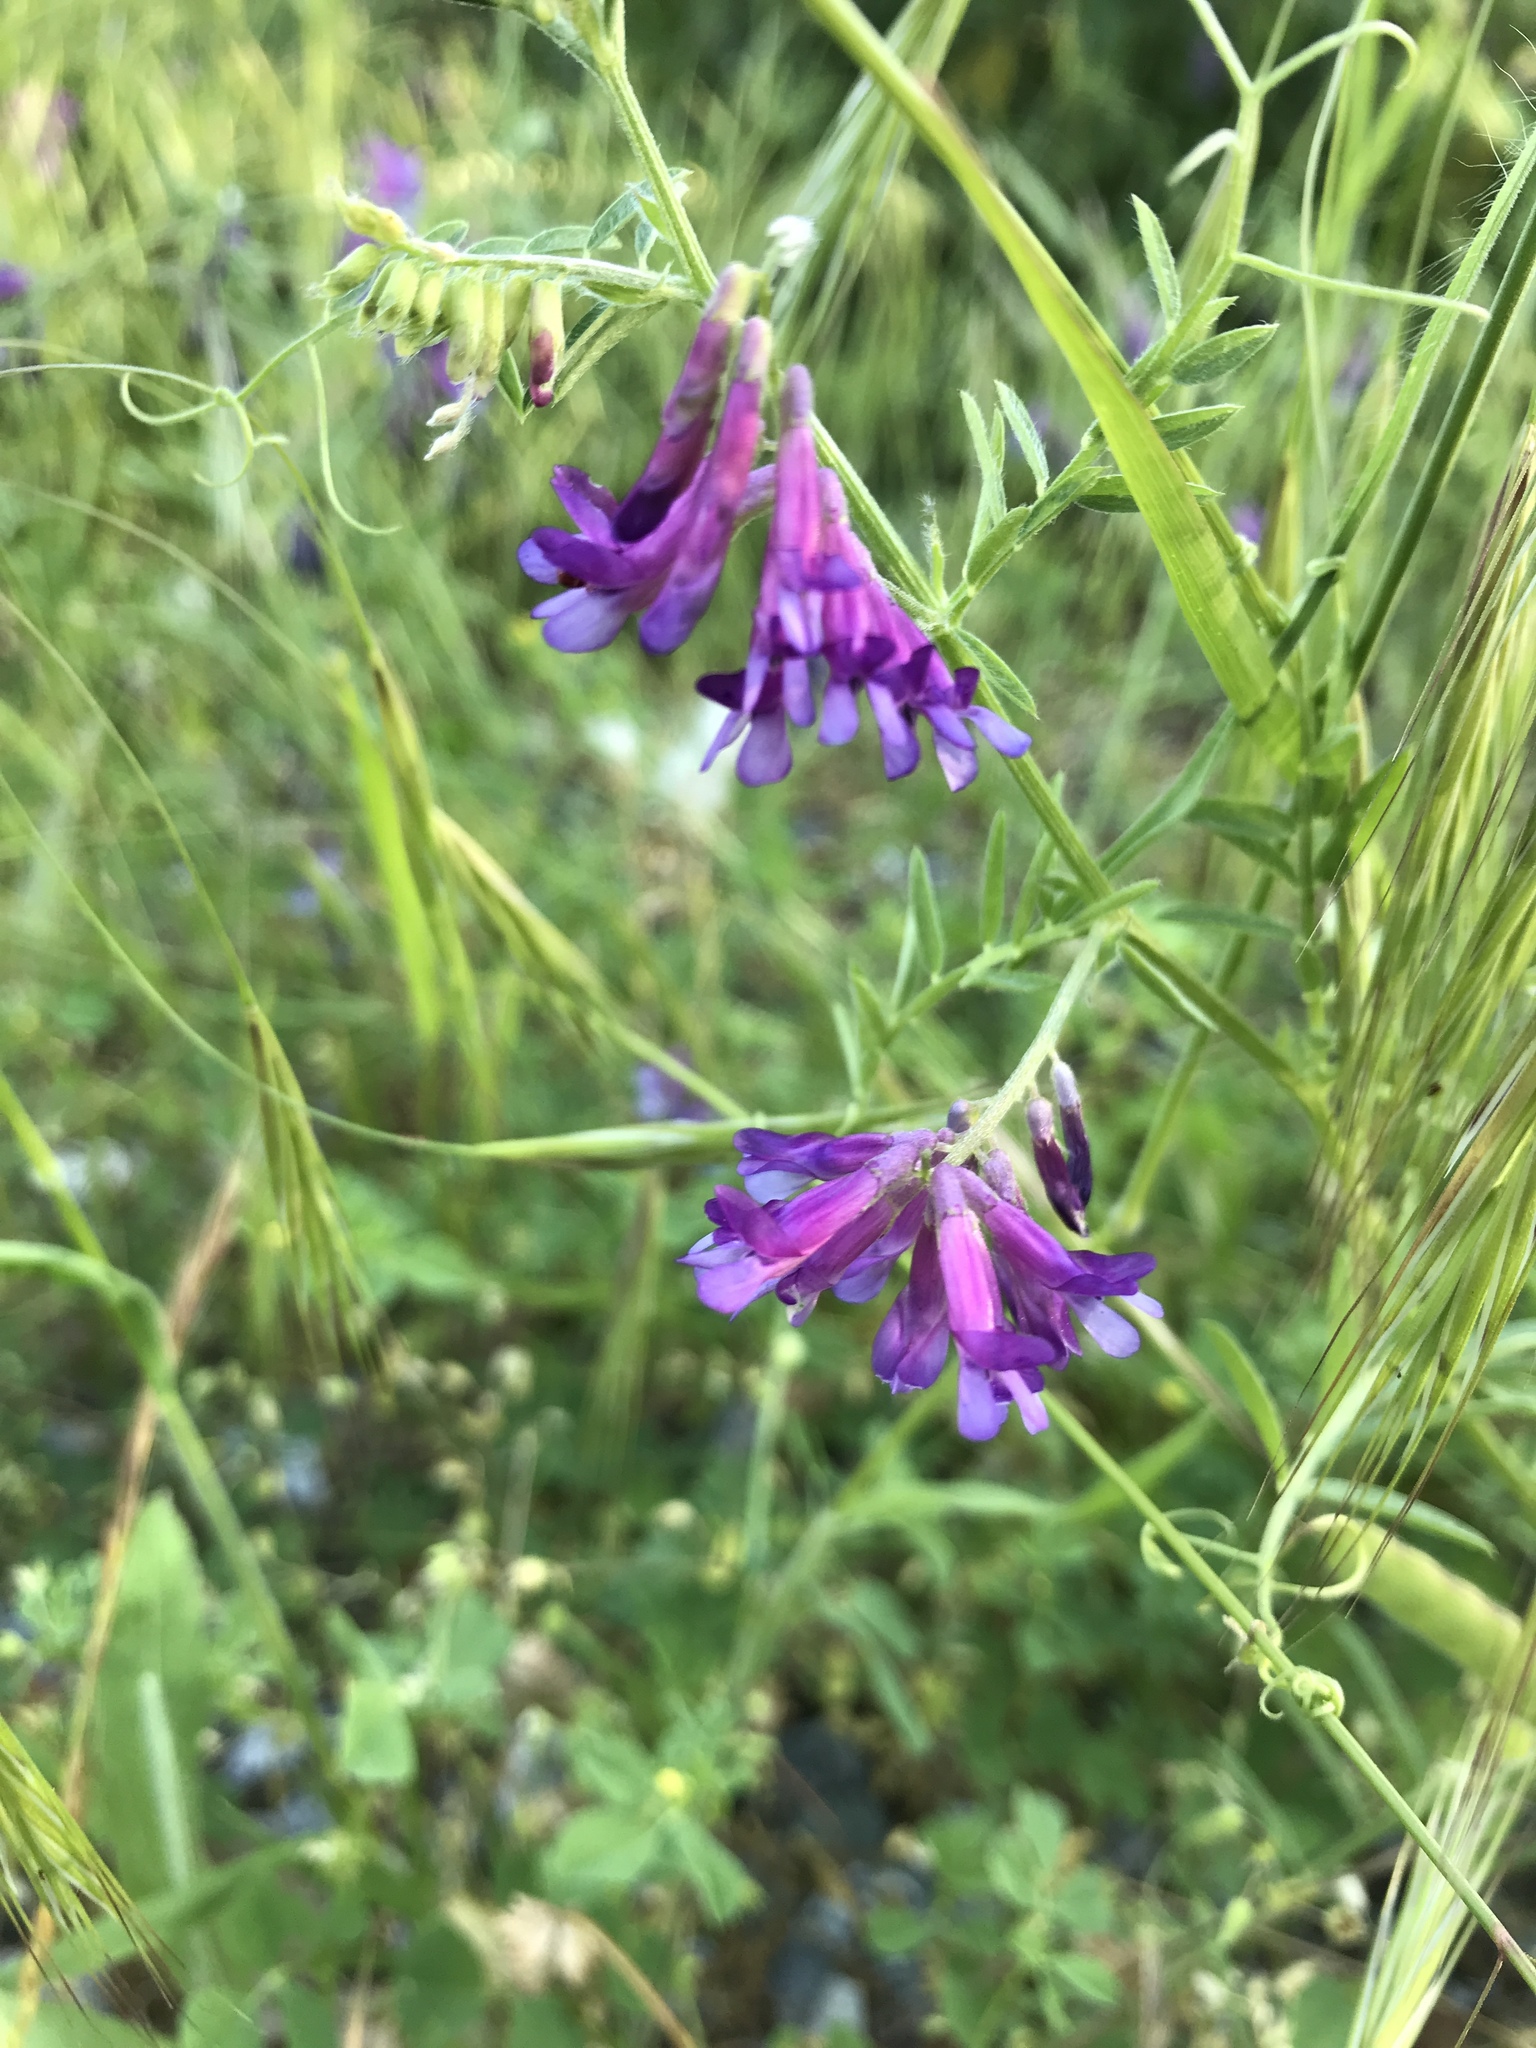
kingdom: Plantae
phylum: Tracheophyta
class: Magnoliopsida
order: Fabales
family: Fabaceae
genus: Vicia
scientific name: Vicia villosa
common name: Fodder vetch
